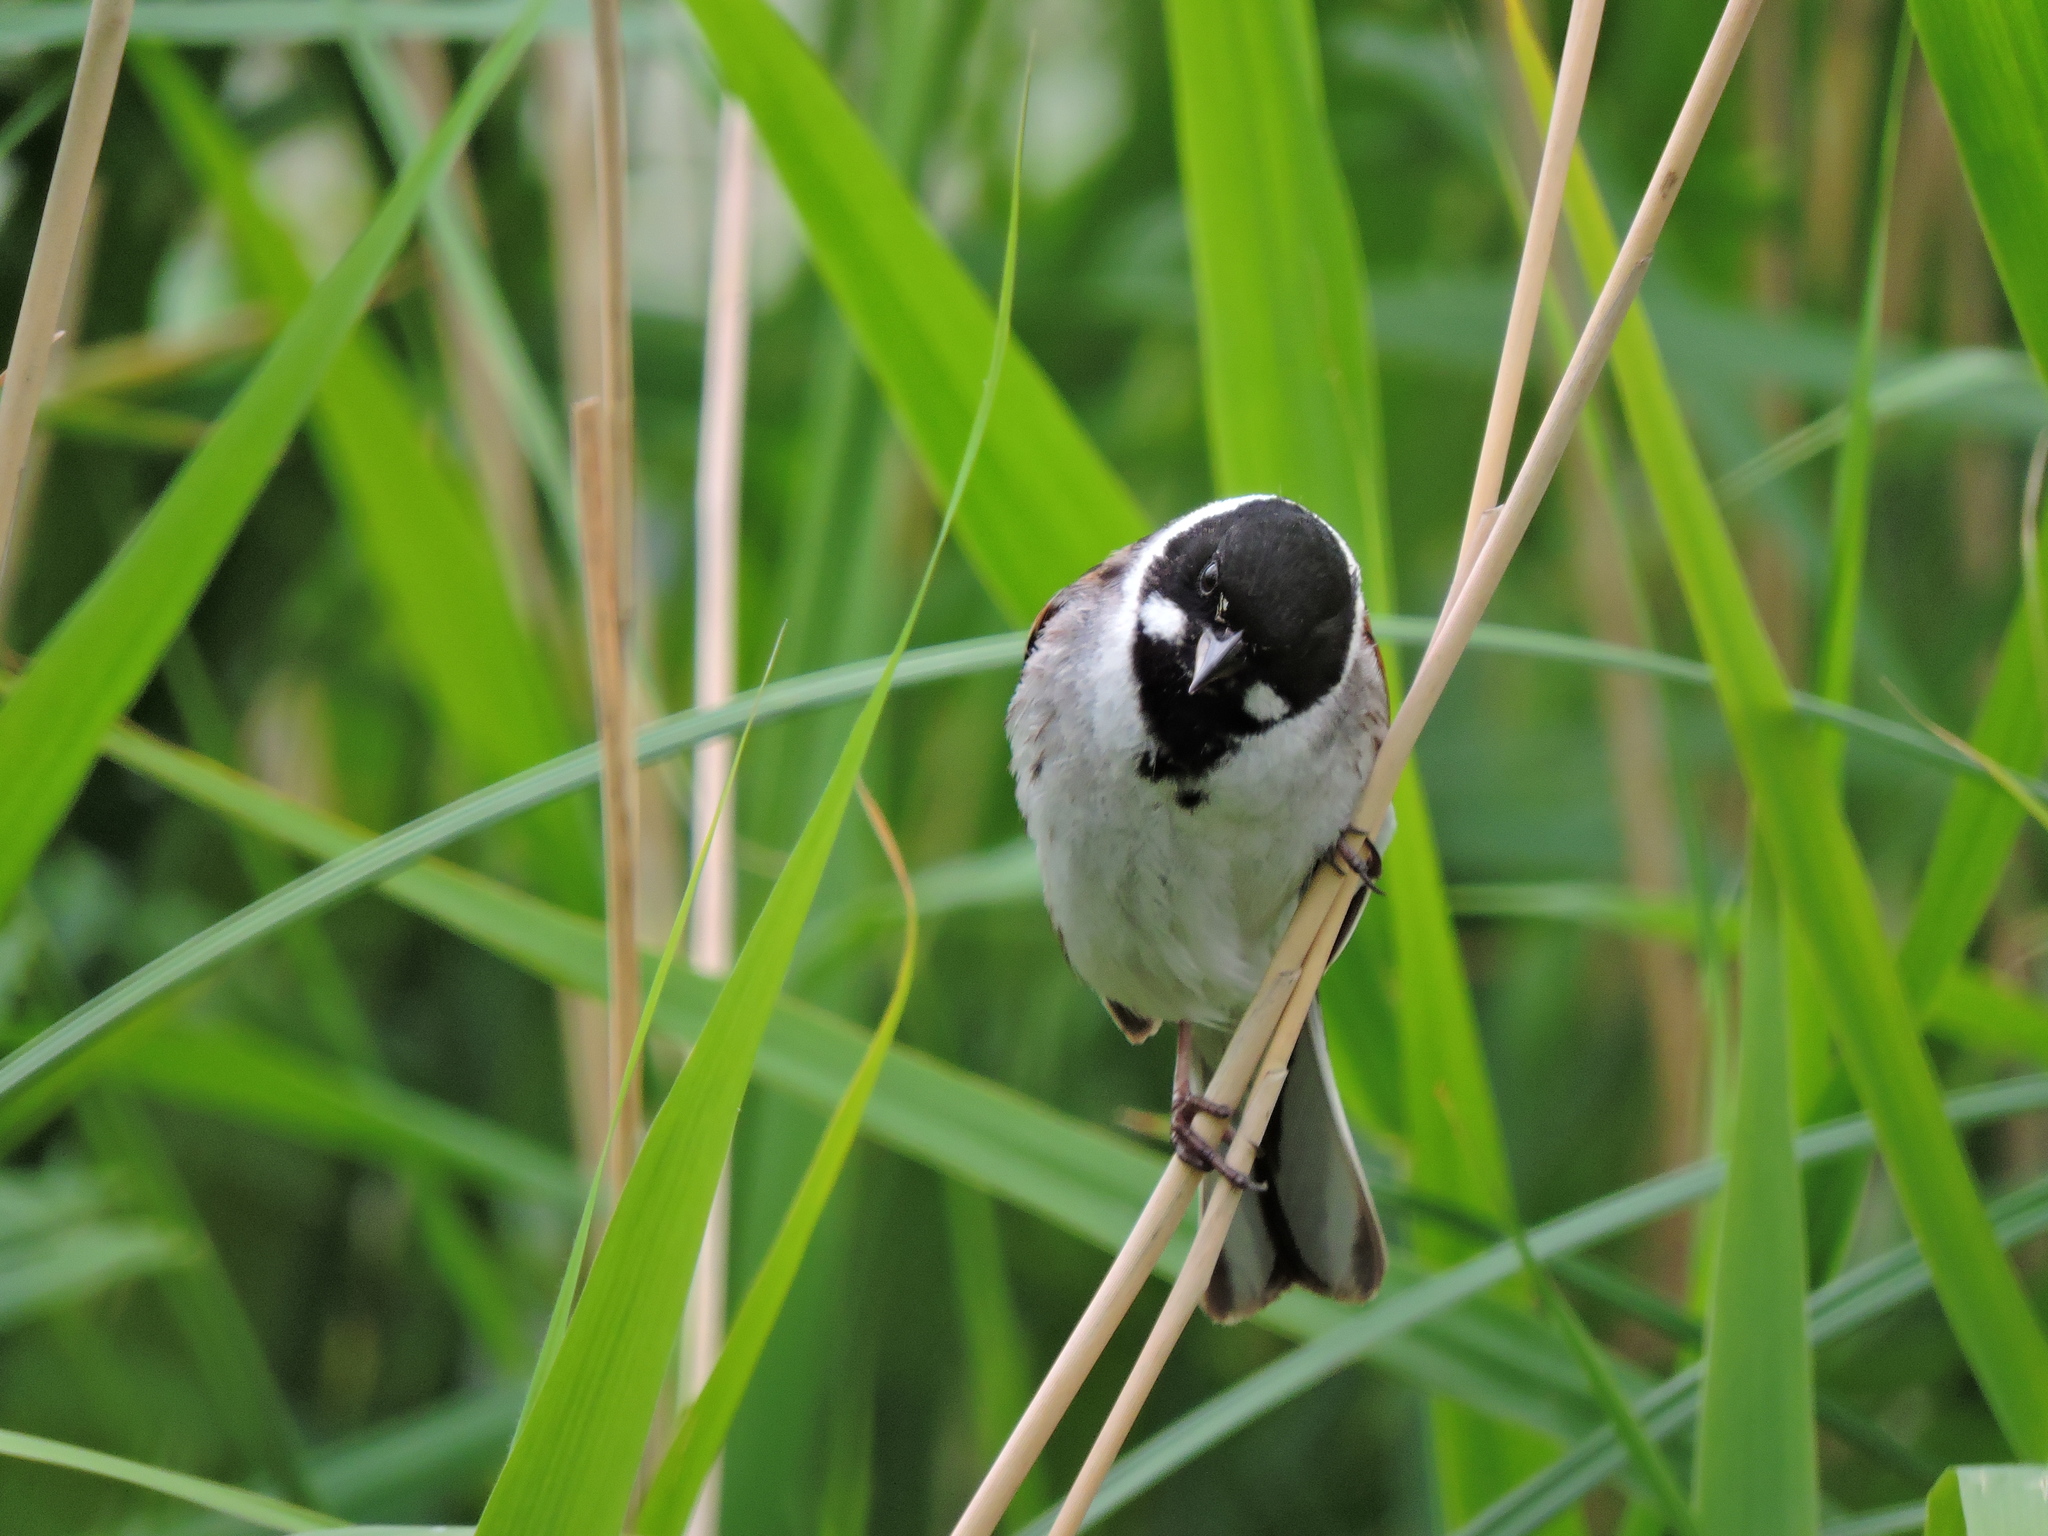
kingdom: Animalia
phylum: Chordata
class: Aves
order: Passeriformes
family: Emberizidae
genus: Emberiza
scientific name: Emberiza schoeniclus
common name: Reed bunting
